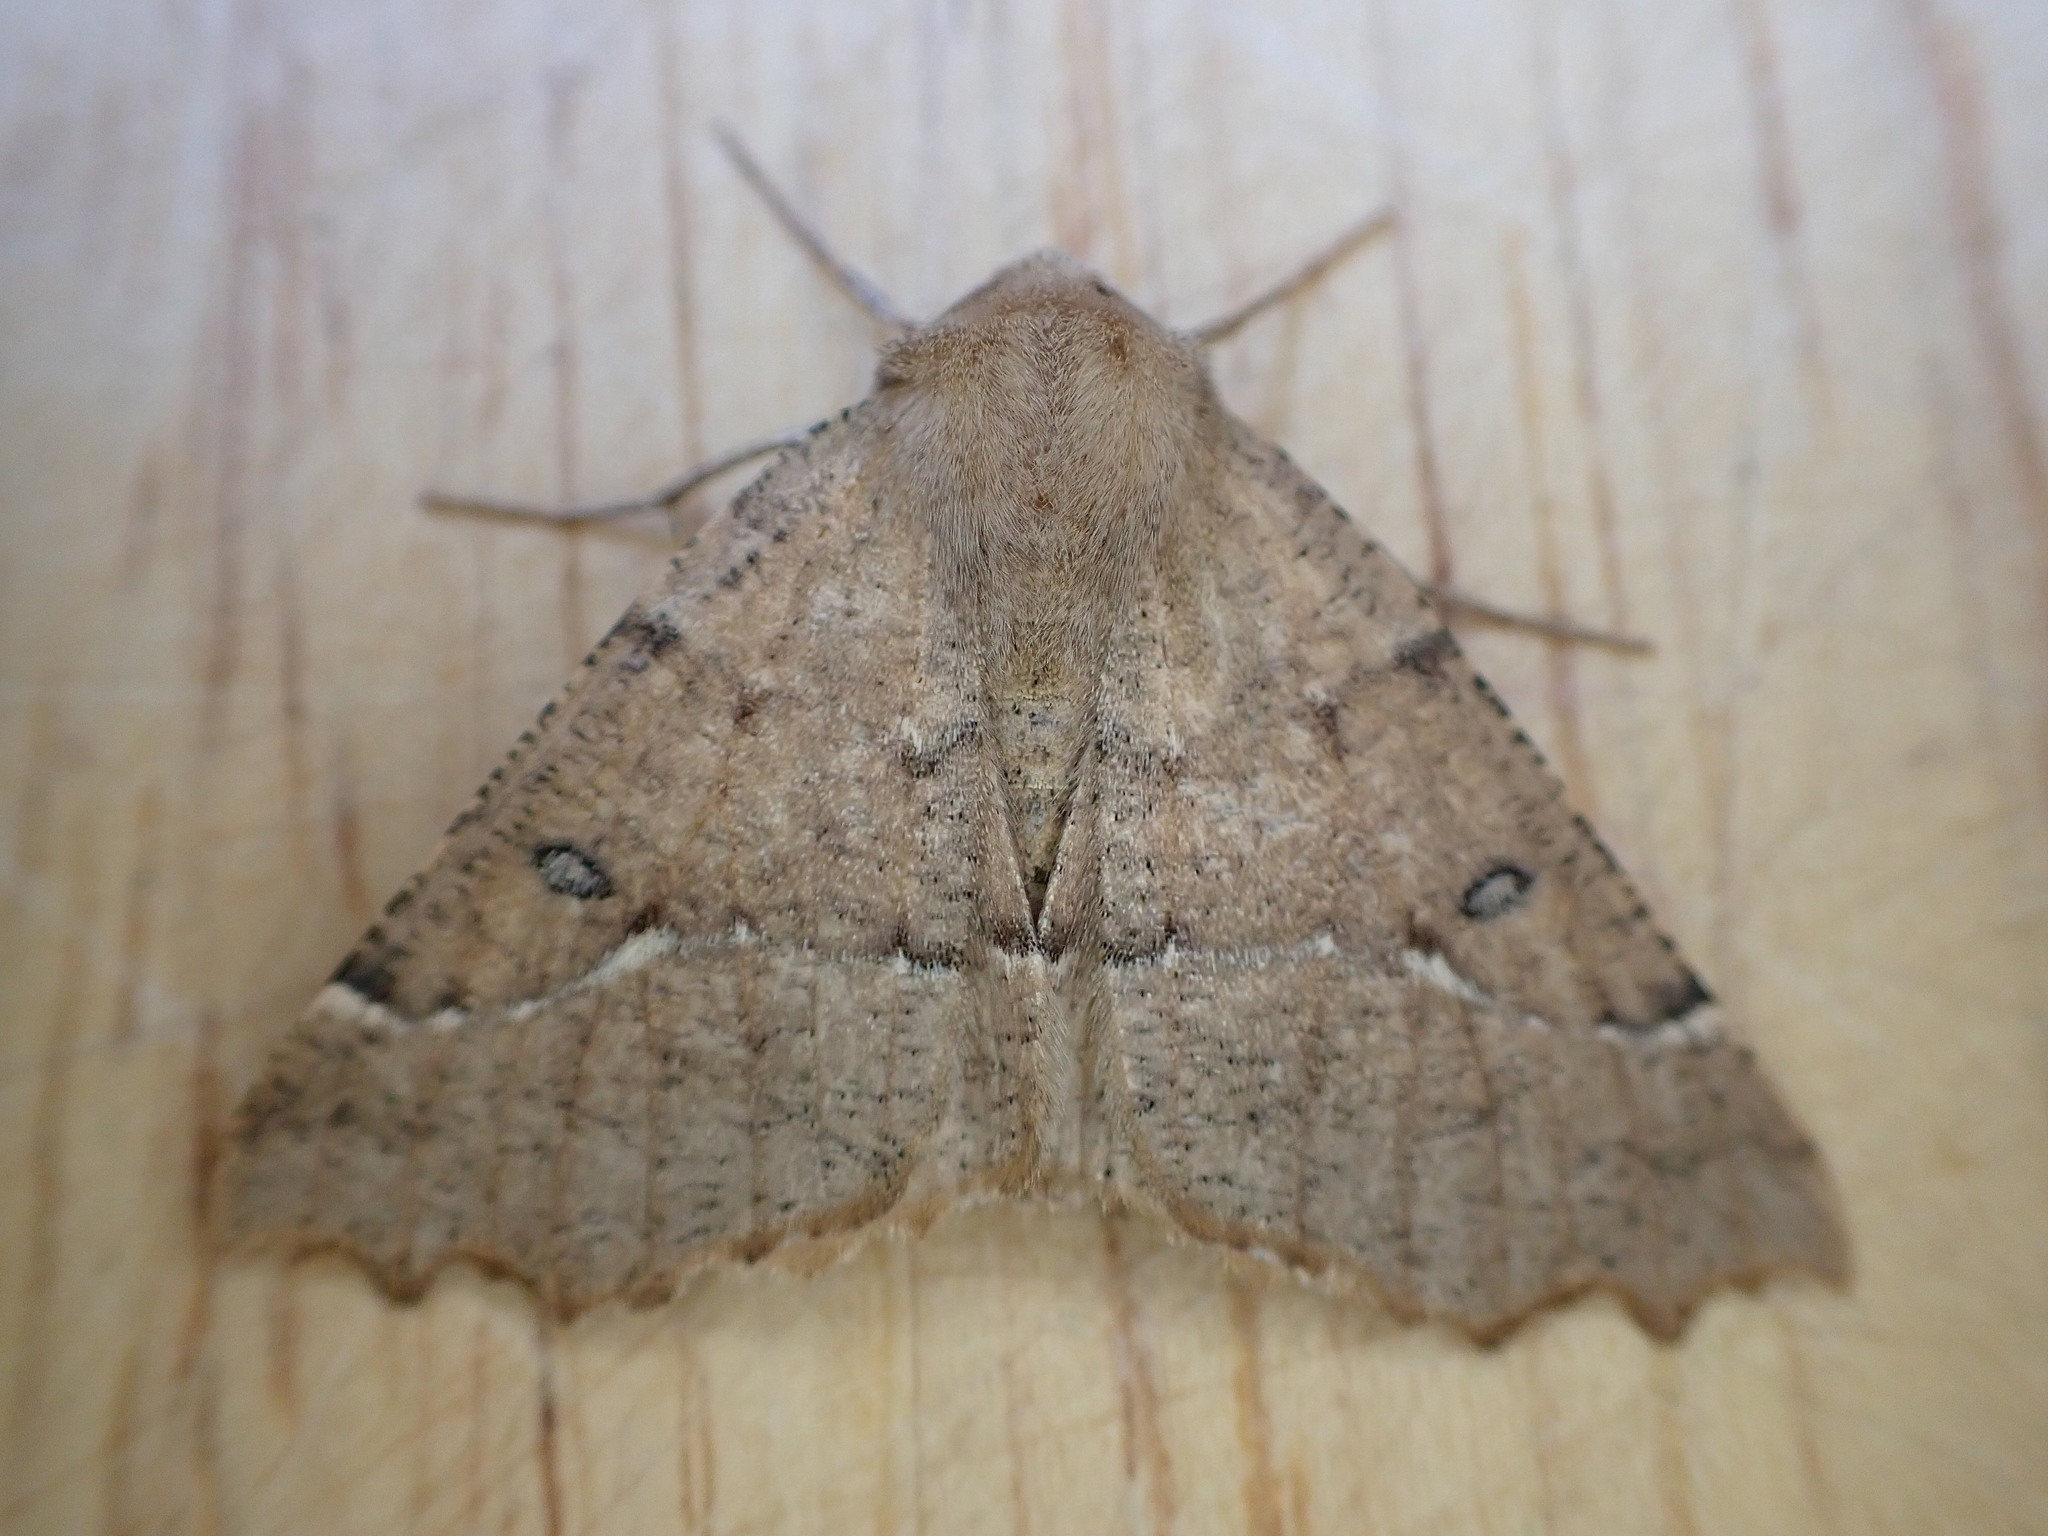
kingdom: Animalia
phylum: Arthropoda
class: Insecta
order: Lepidoptera
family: Geometridae
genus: Odontopera
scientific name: Odontopera bidentata
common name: Scalloped hazel
